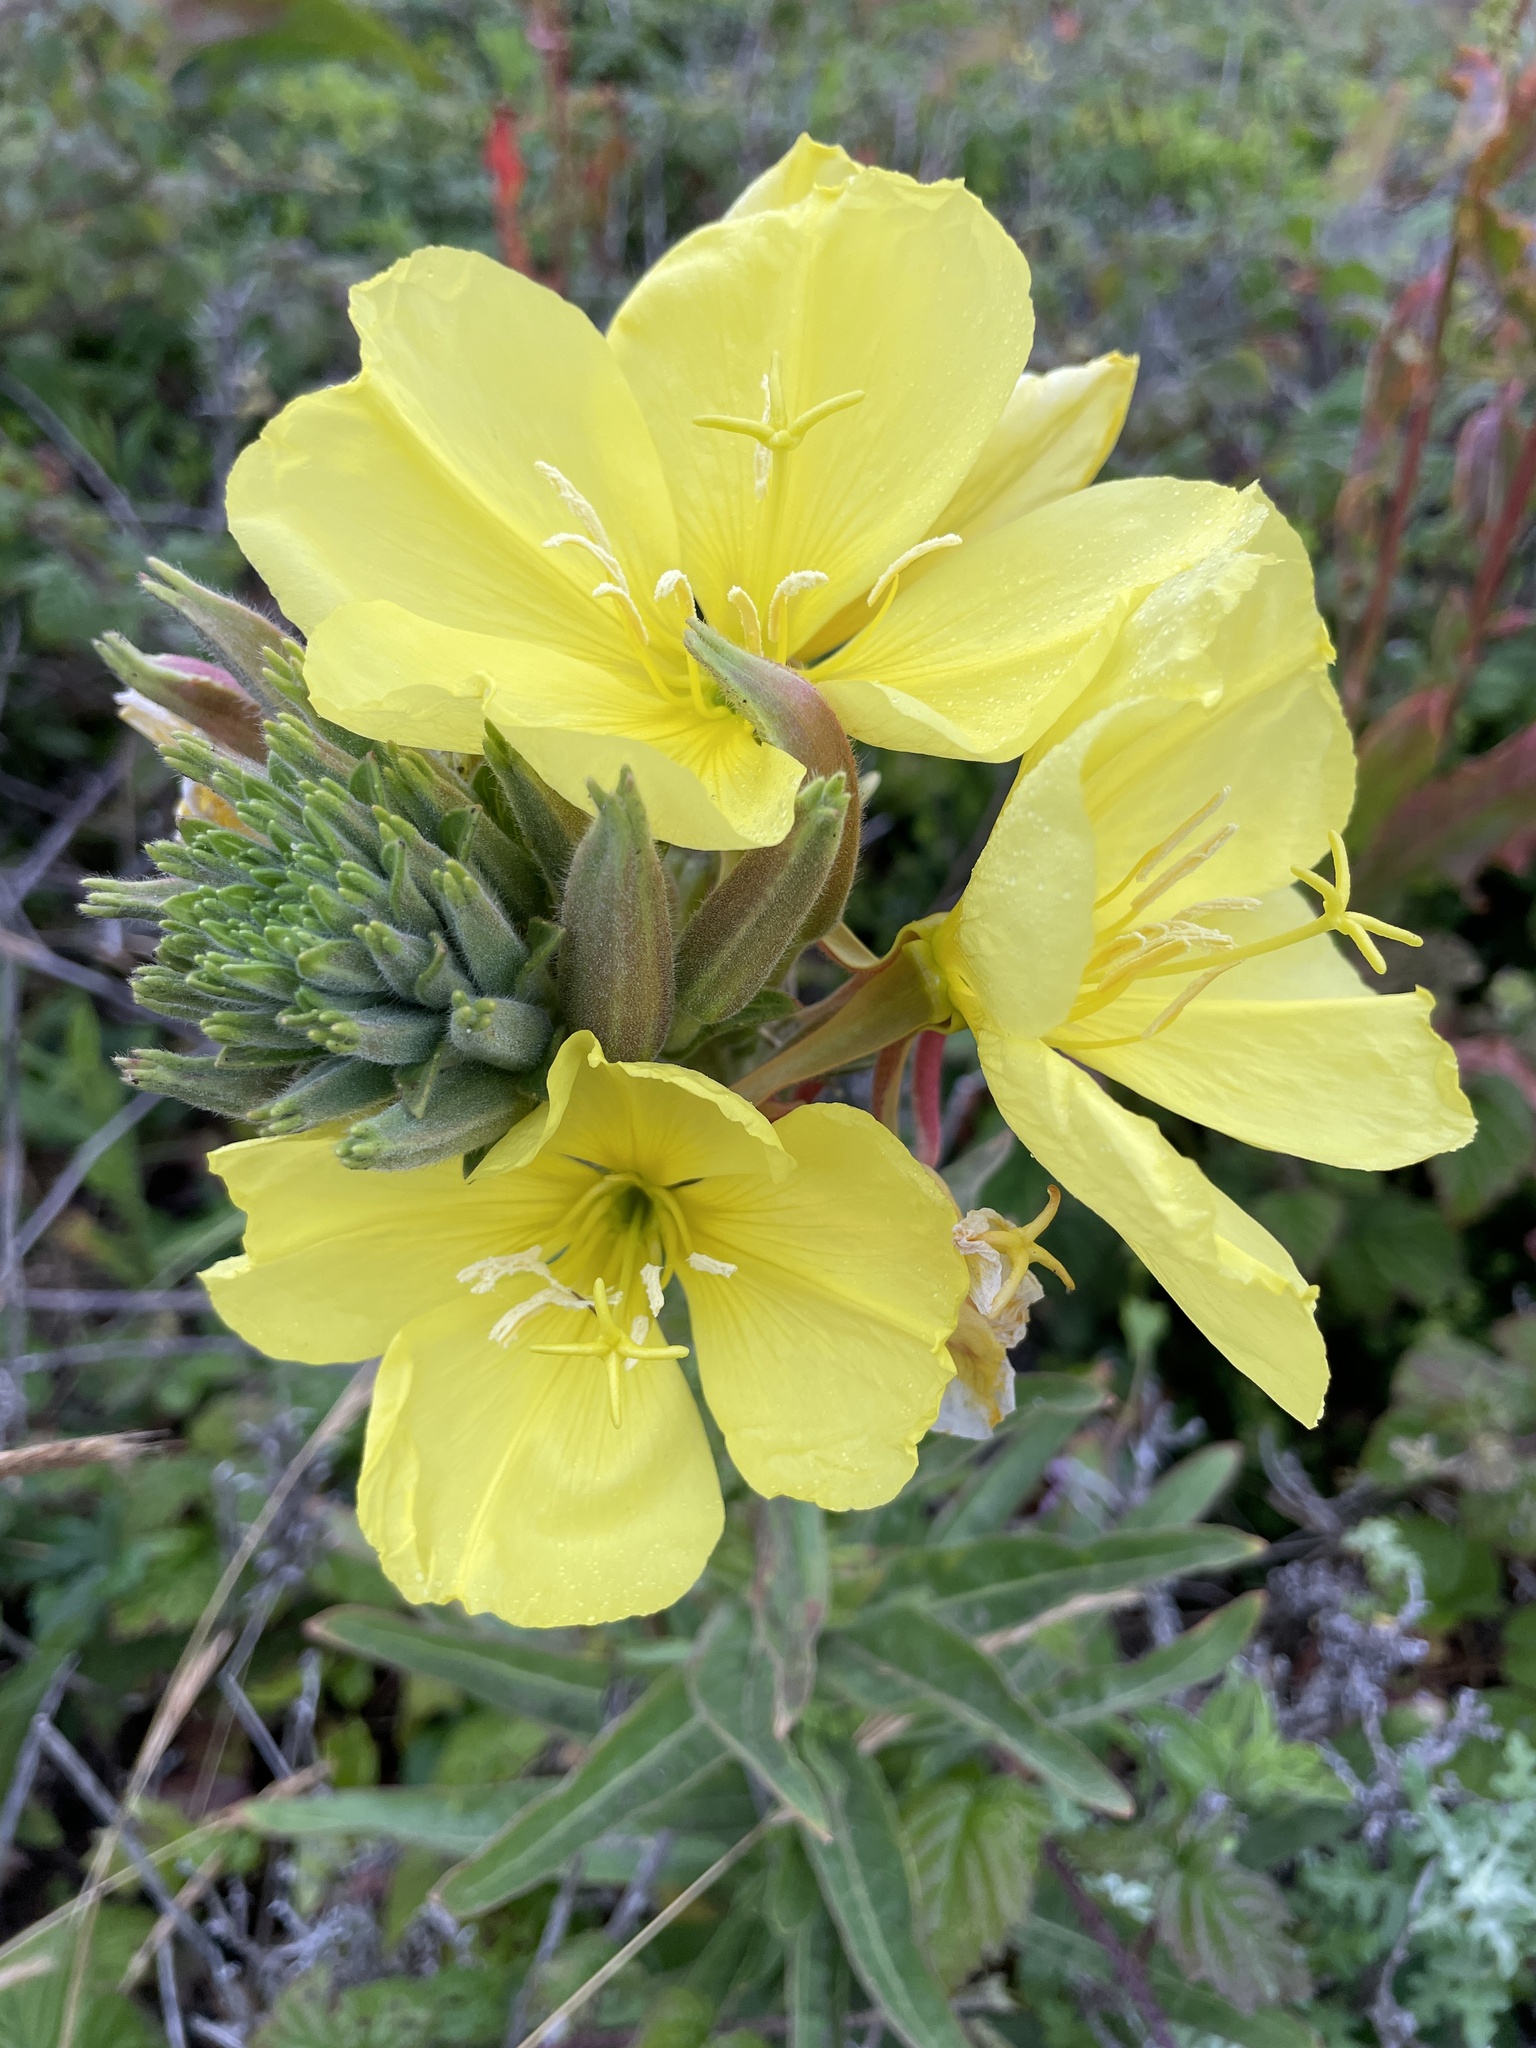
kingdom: Plantae
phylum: Tracheophyta
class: Magnoliopsida
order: Myrtales
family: Onagraceae
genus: Oenothera
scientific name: Oenothera elata
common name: Hooker's evening-primrose
